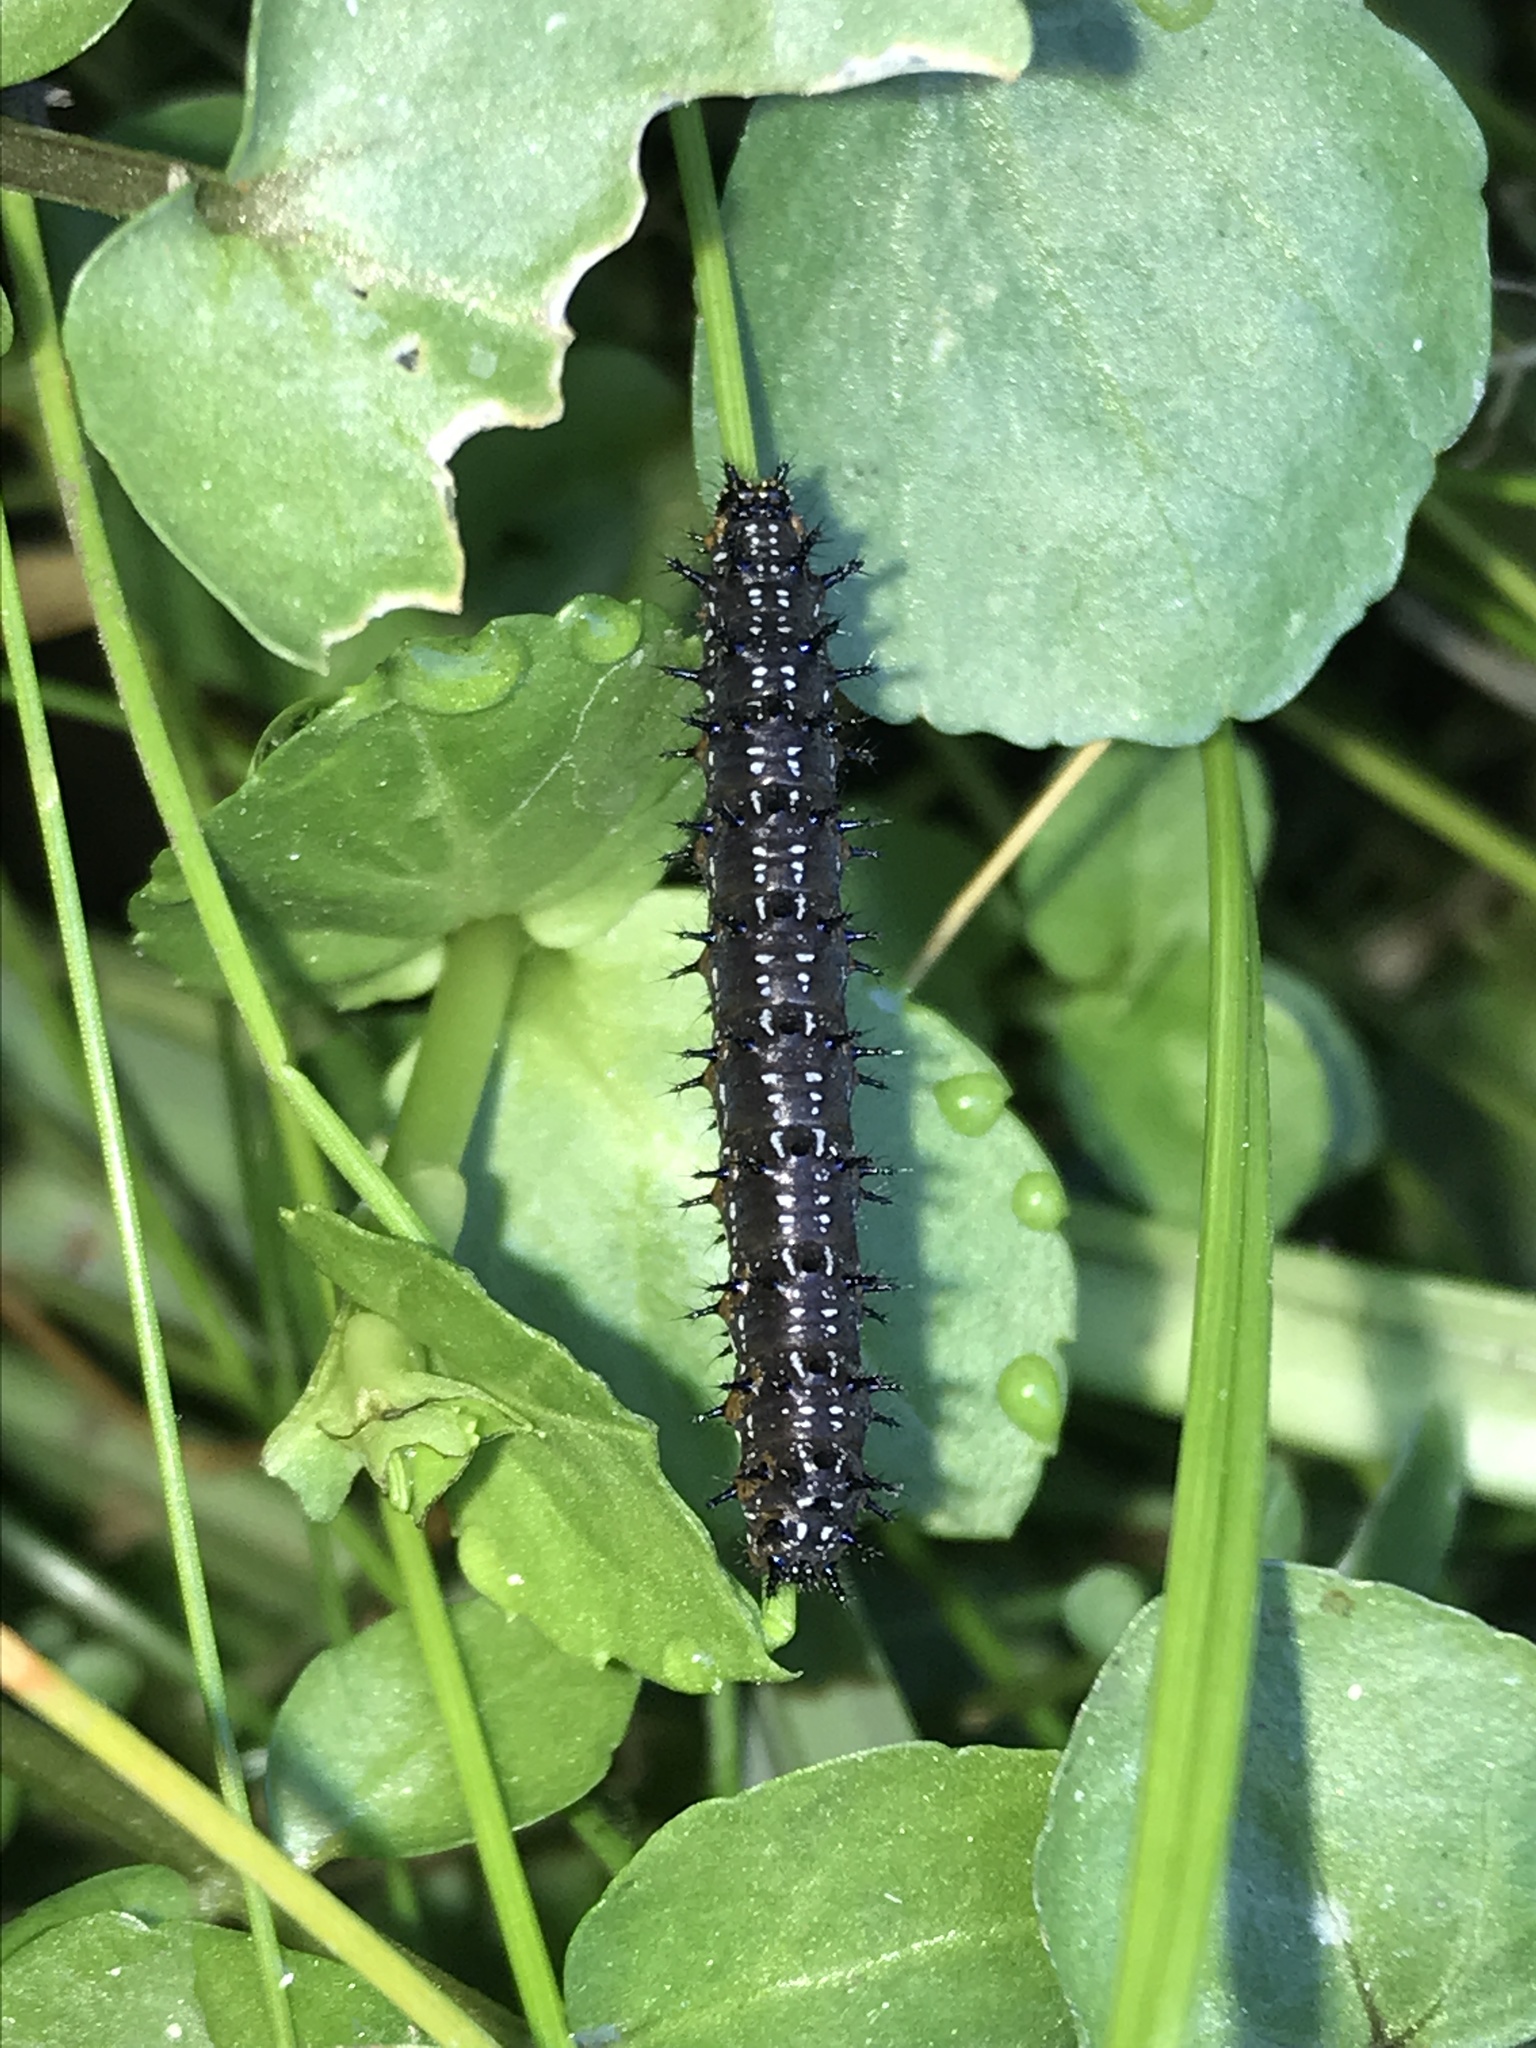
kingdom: Animalia
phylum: Arthropoda
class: Insecta
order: Lepidoptera
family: Nymphalidae
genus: Junonia
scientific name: Junonia grisea
